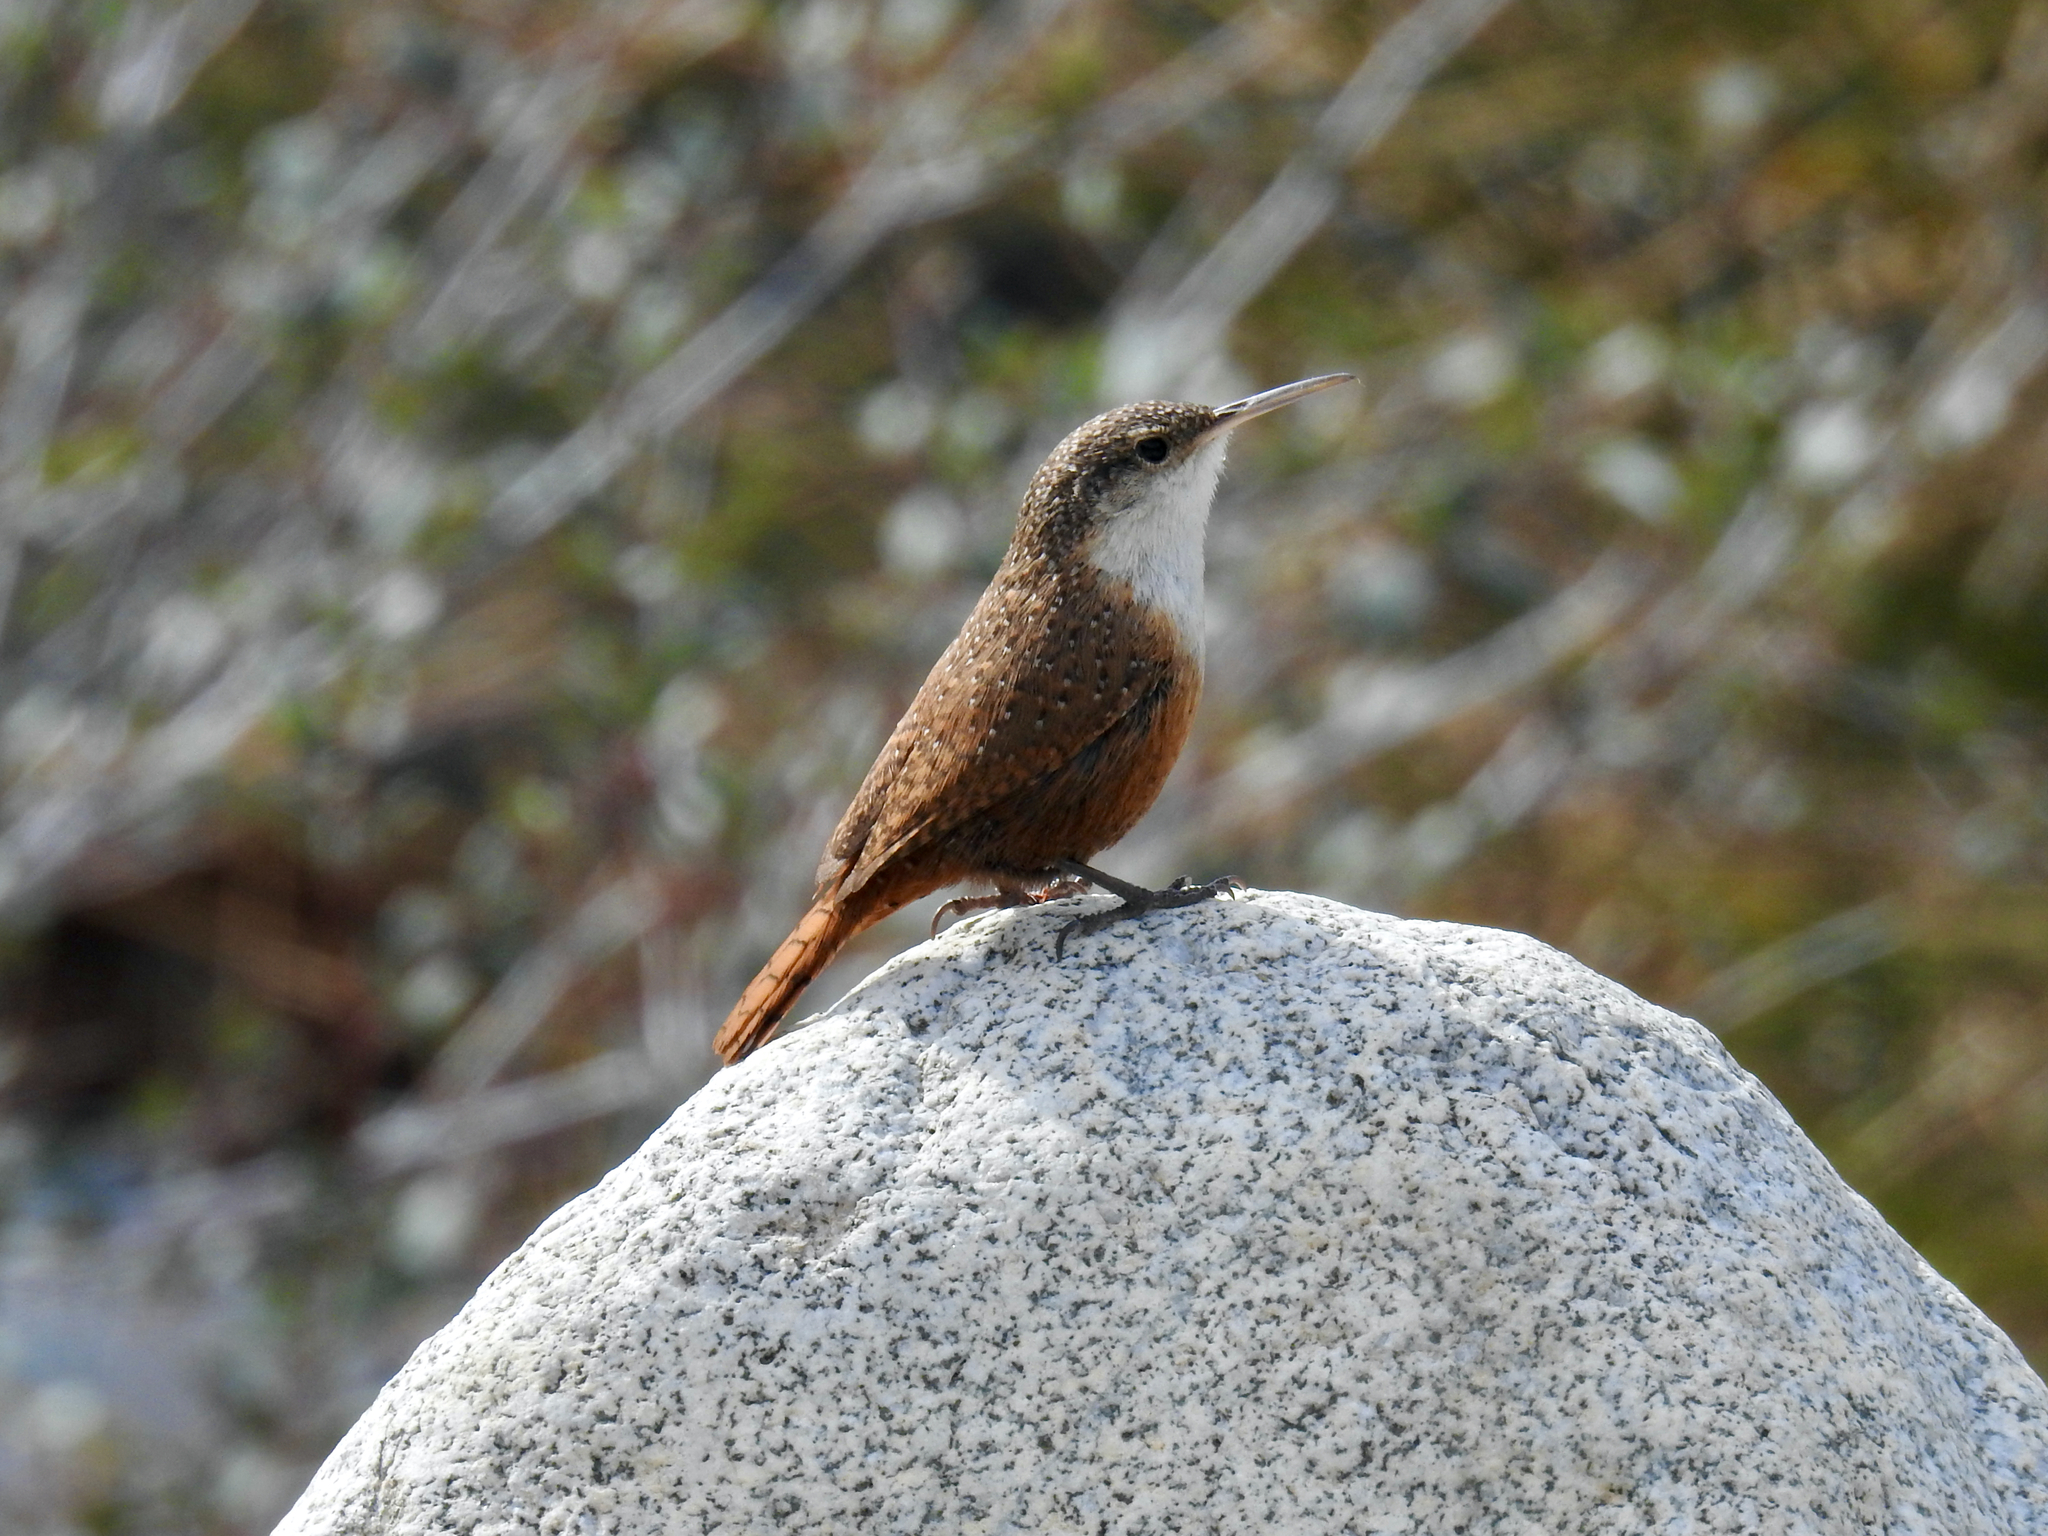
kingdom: Animalia
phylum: Chordata
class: Aves
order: Passeriformes
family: Troglodytidae
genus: Catherpes
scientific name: Catherpes mexicanus
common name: Canyon wren
